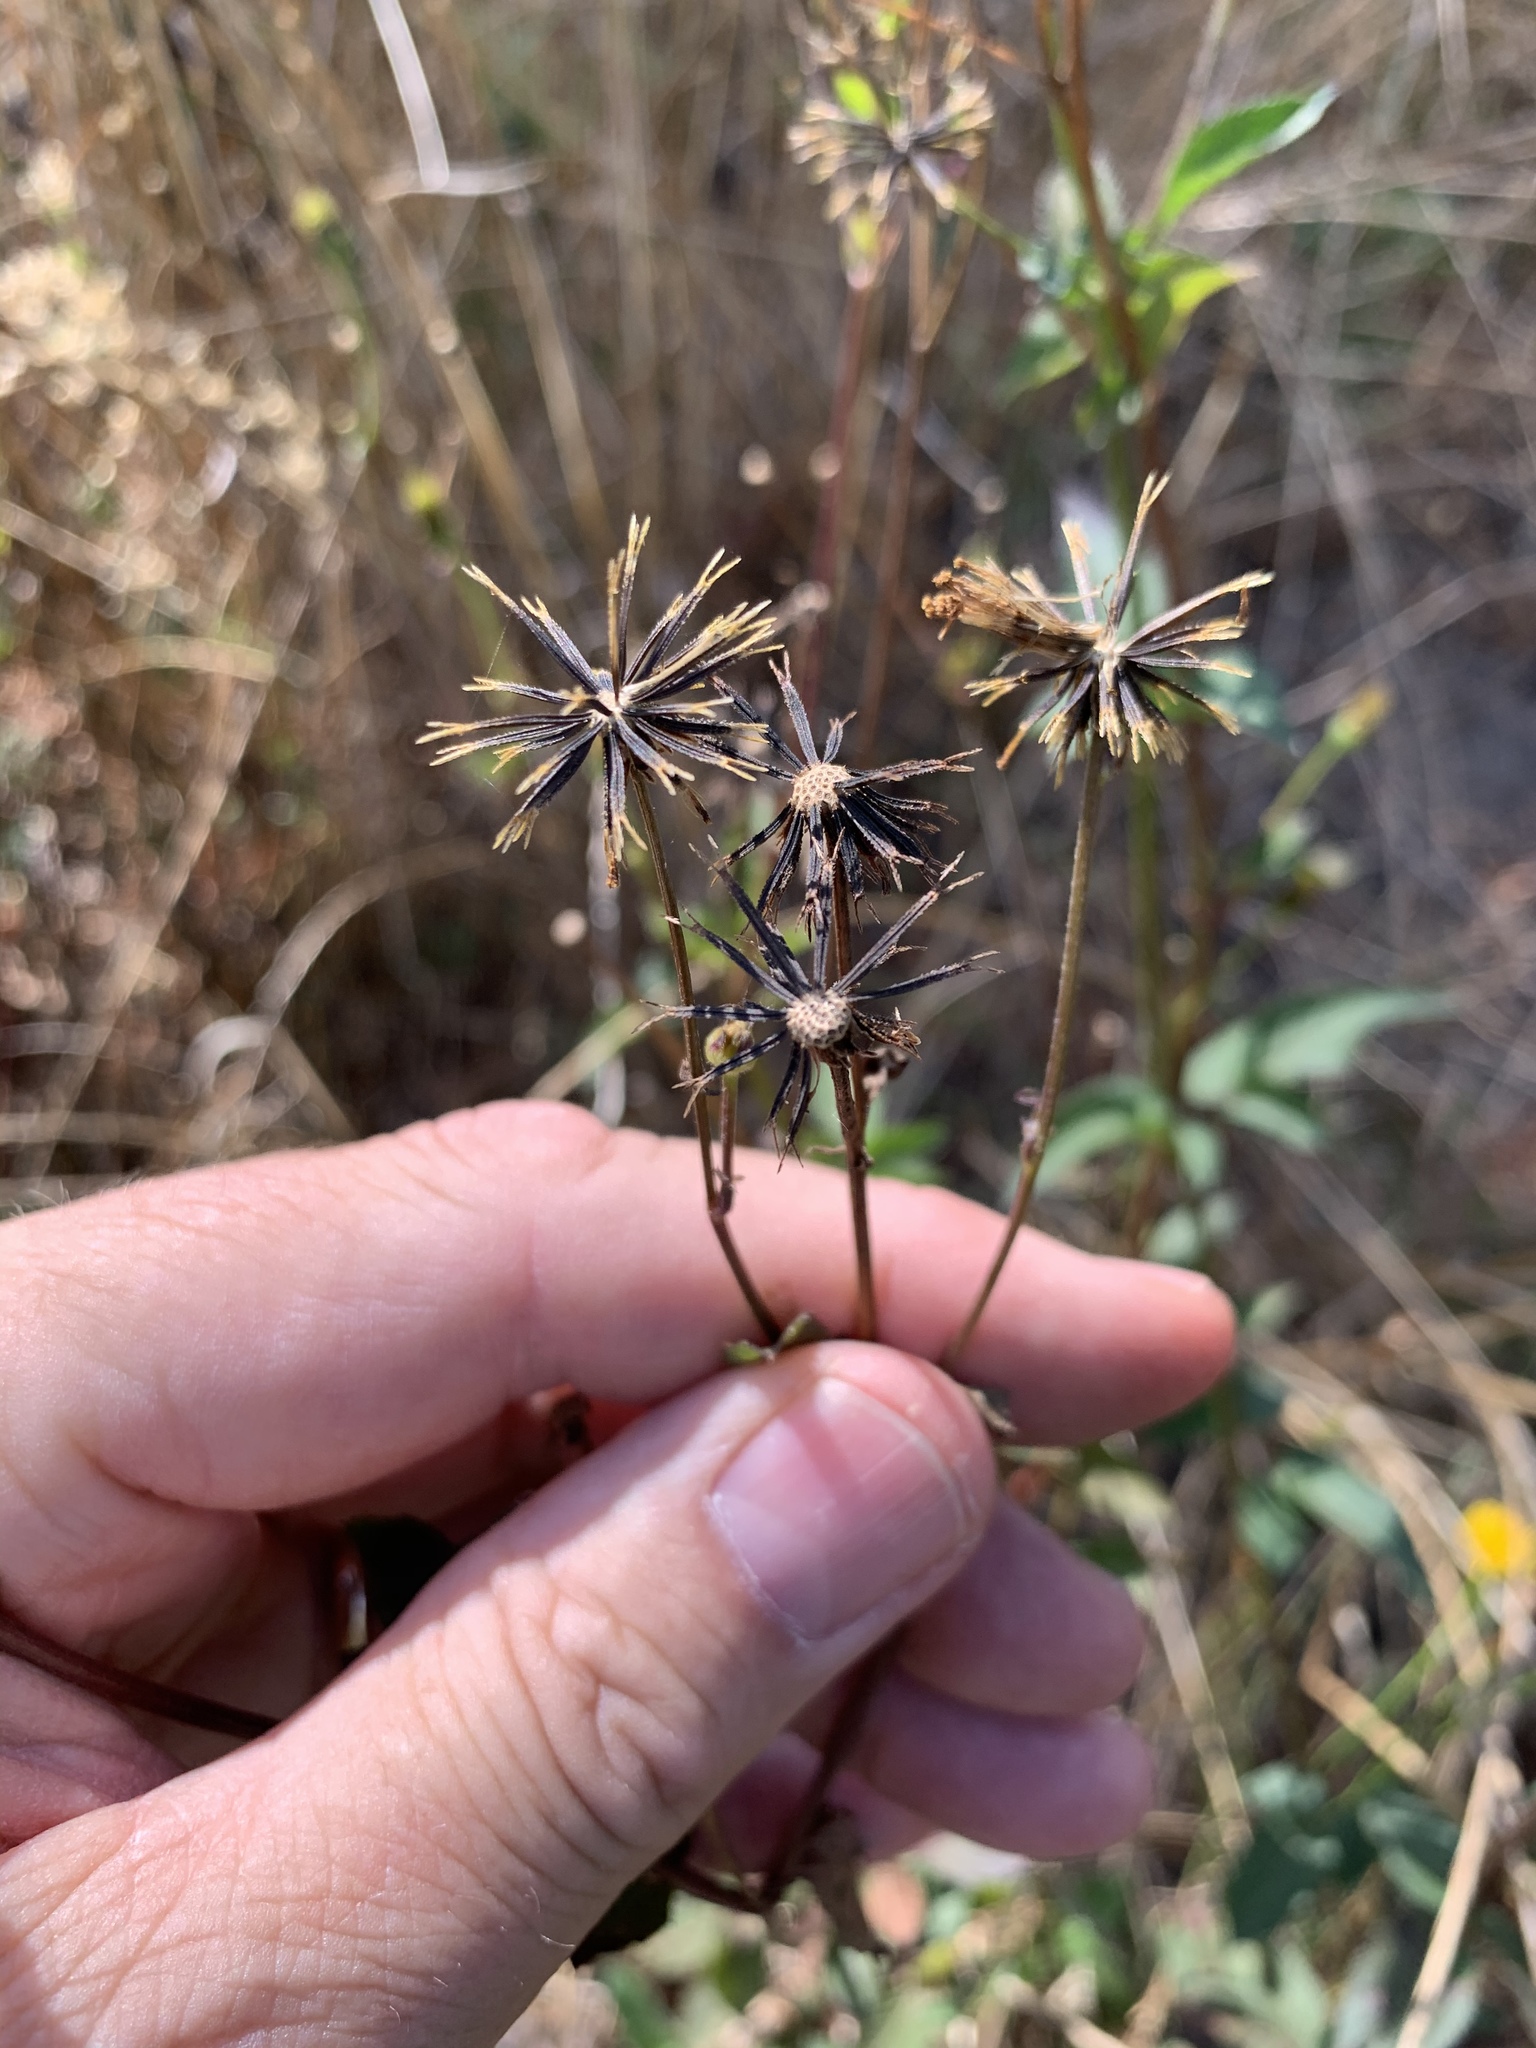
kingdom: Plantae
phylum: Tracheophyta
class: Magnoliopsida
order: Asterales
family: Asteraceae
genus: Bidens
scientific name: Bidens pilosa
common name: Black-jack
